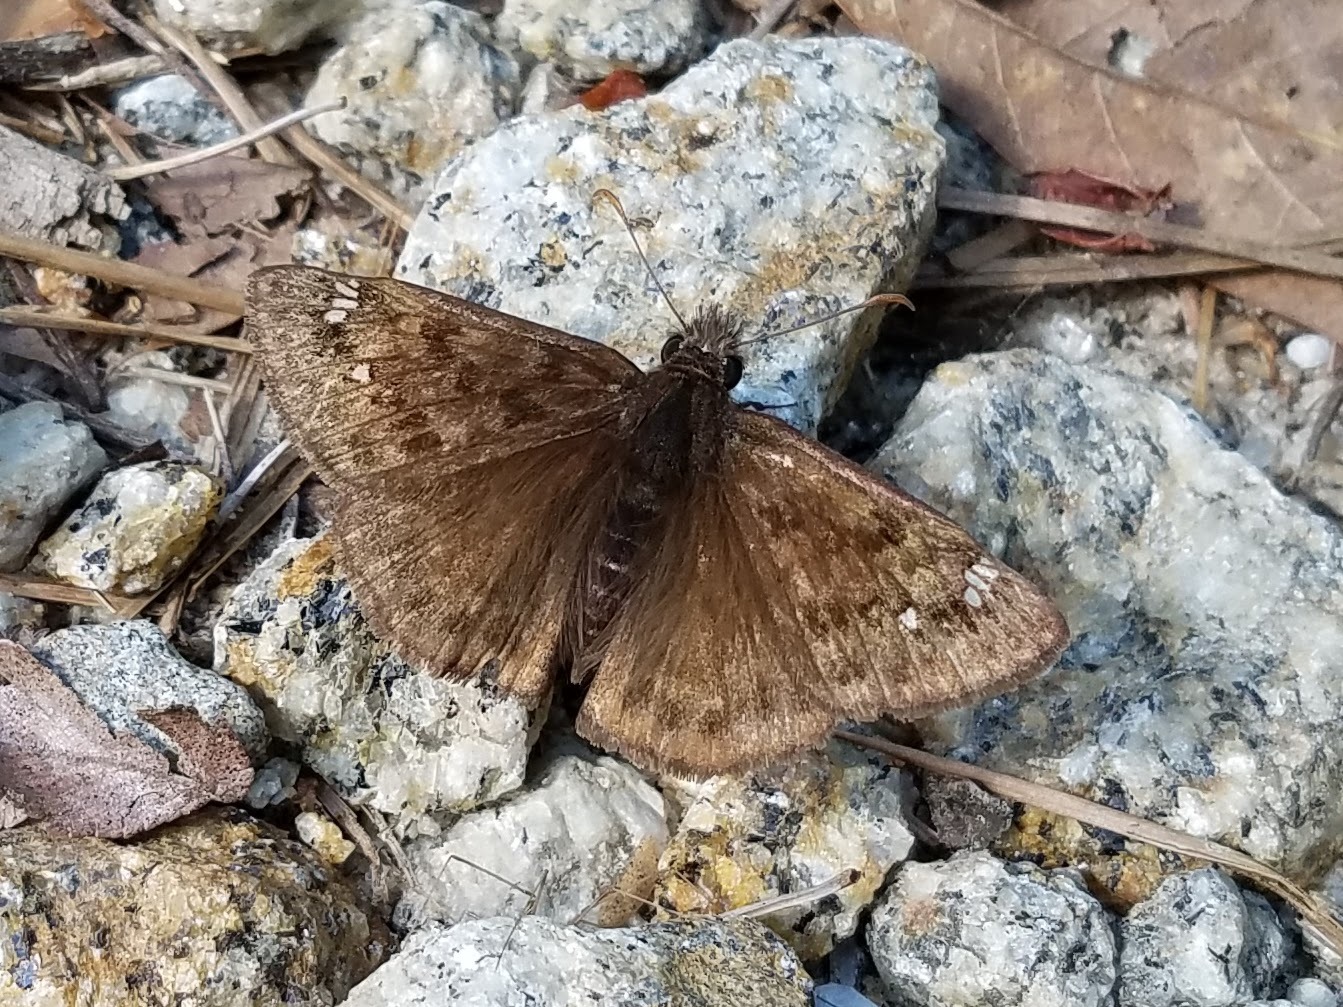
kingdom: Animalia
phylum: Arthropoda
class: Insecta
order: Lepidoptera
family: Hesperiidae
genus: Erynnis
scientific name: Erynnis horatius
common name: Horace's duskywing
